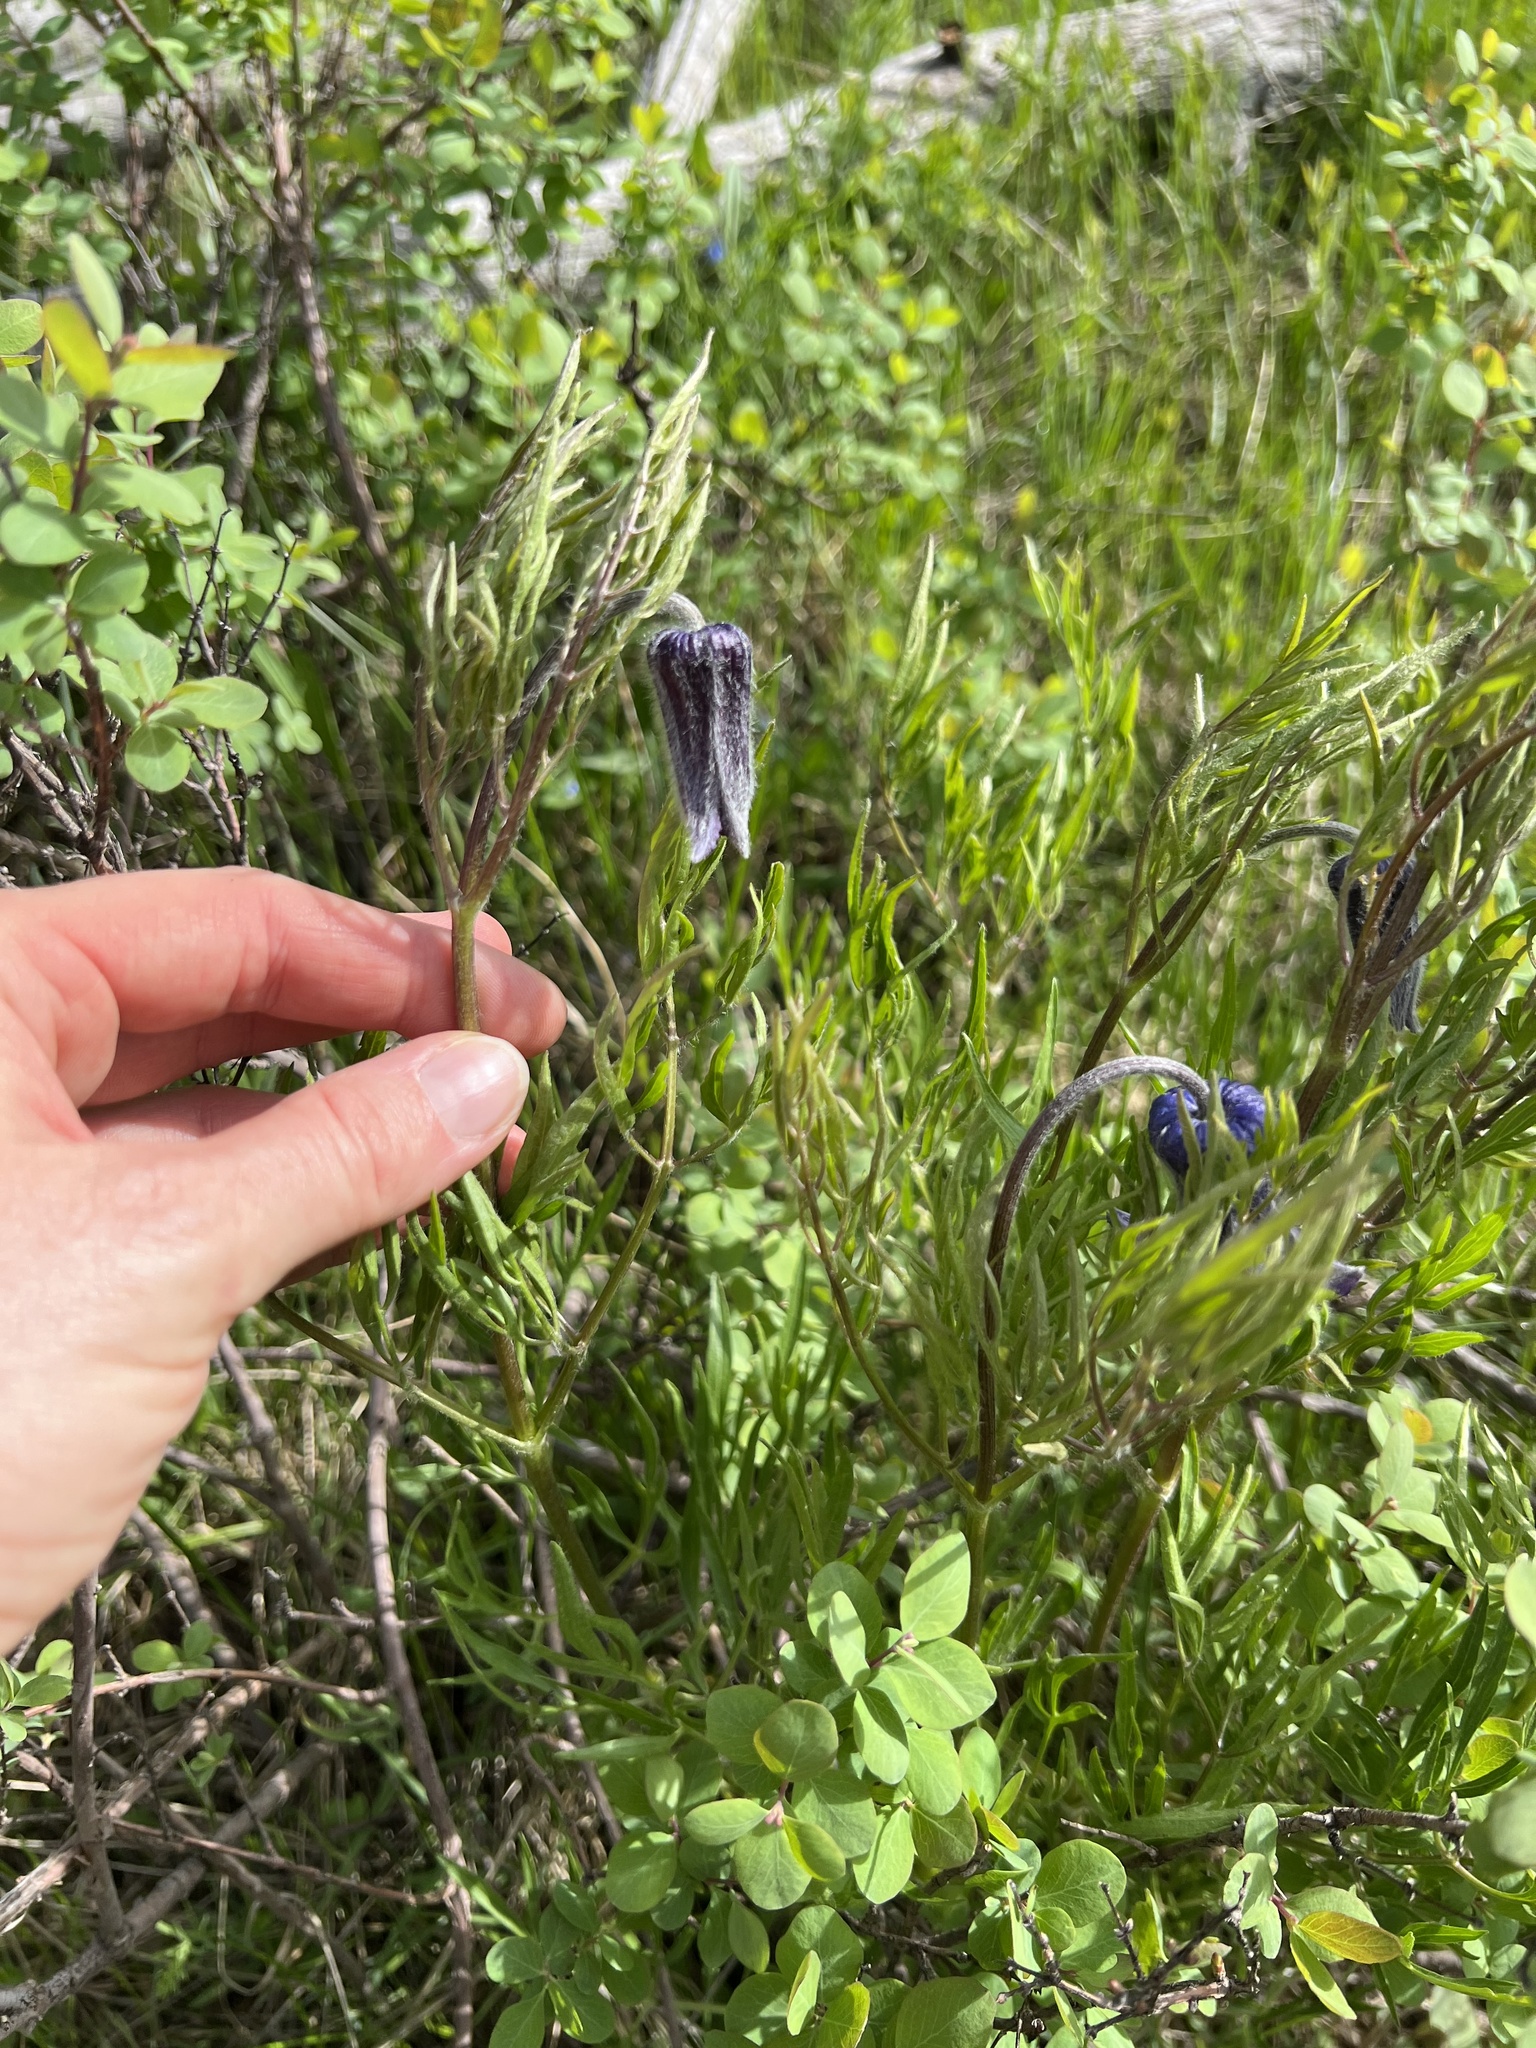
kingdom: Plantae
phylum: Tracheophyta
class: Magnoliopsida
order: Ranunculales
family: Ranunculaceae
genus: Clematis
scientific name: Clematis hirsutissima
